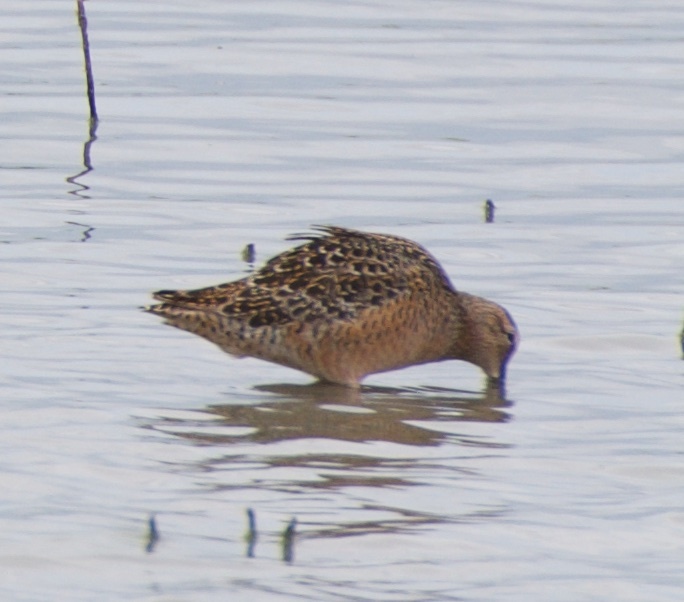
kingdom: Animalia
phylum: Chordata
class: Aves
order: Charadriiformes
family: Scolopacidae
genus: Limnodromus
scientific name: Limnodromus scolopaceus
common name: Long-billed dowitcher
